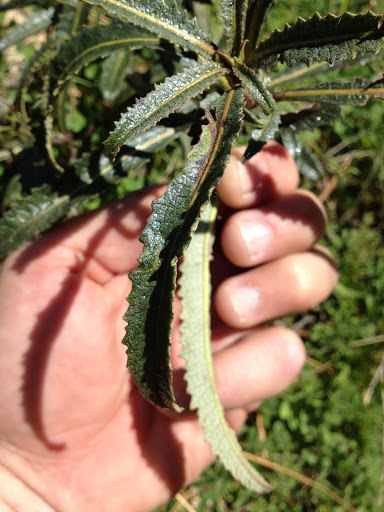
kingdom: Plantae
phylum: Tracheophyta
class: Magnoliopsida
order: Boraginales
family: Namaceae
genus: Eriodictyon
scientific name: Eriodictyon californicum
